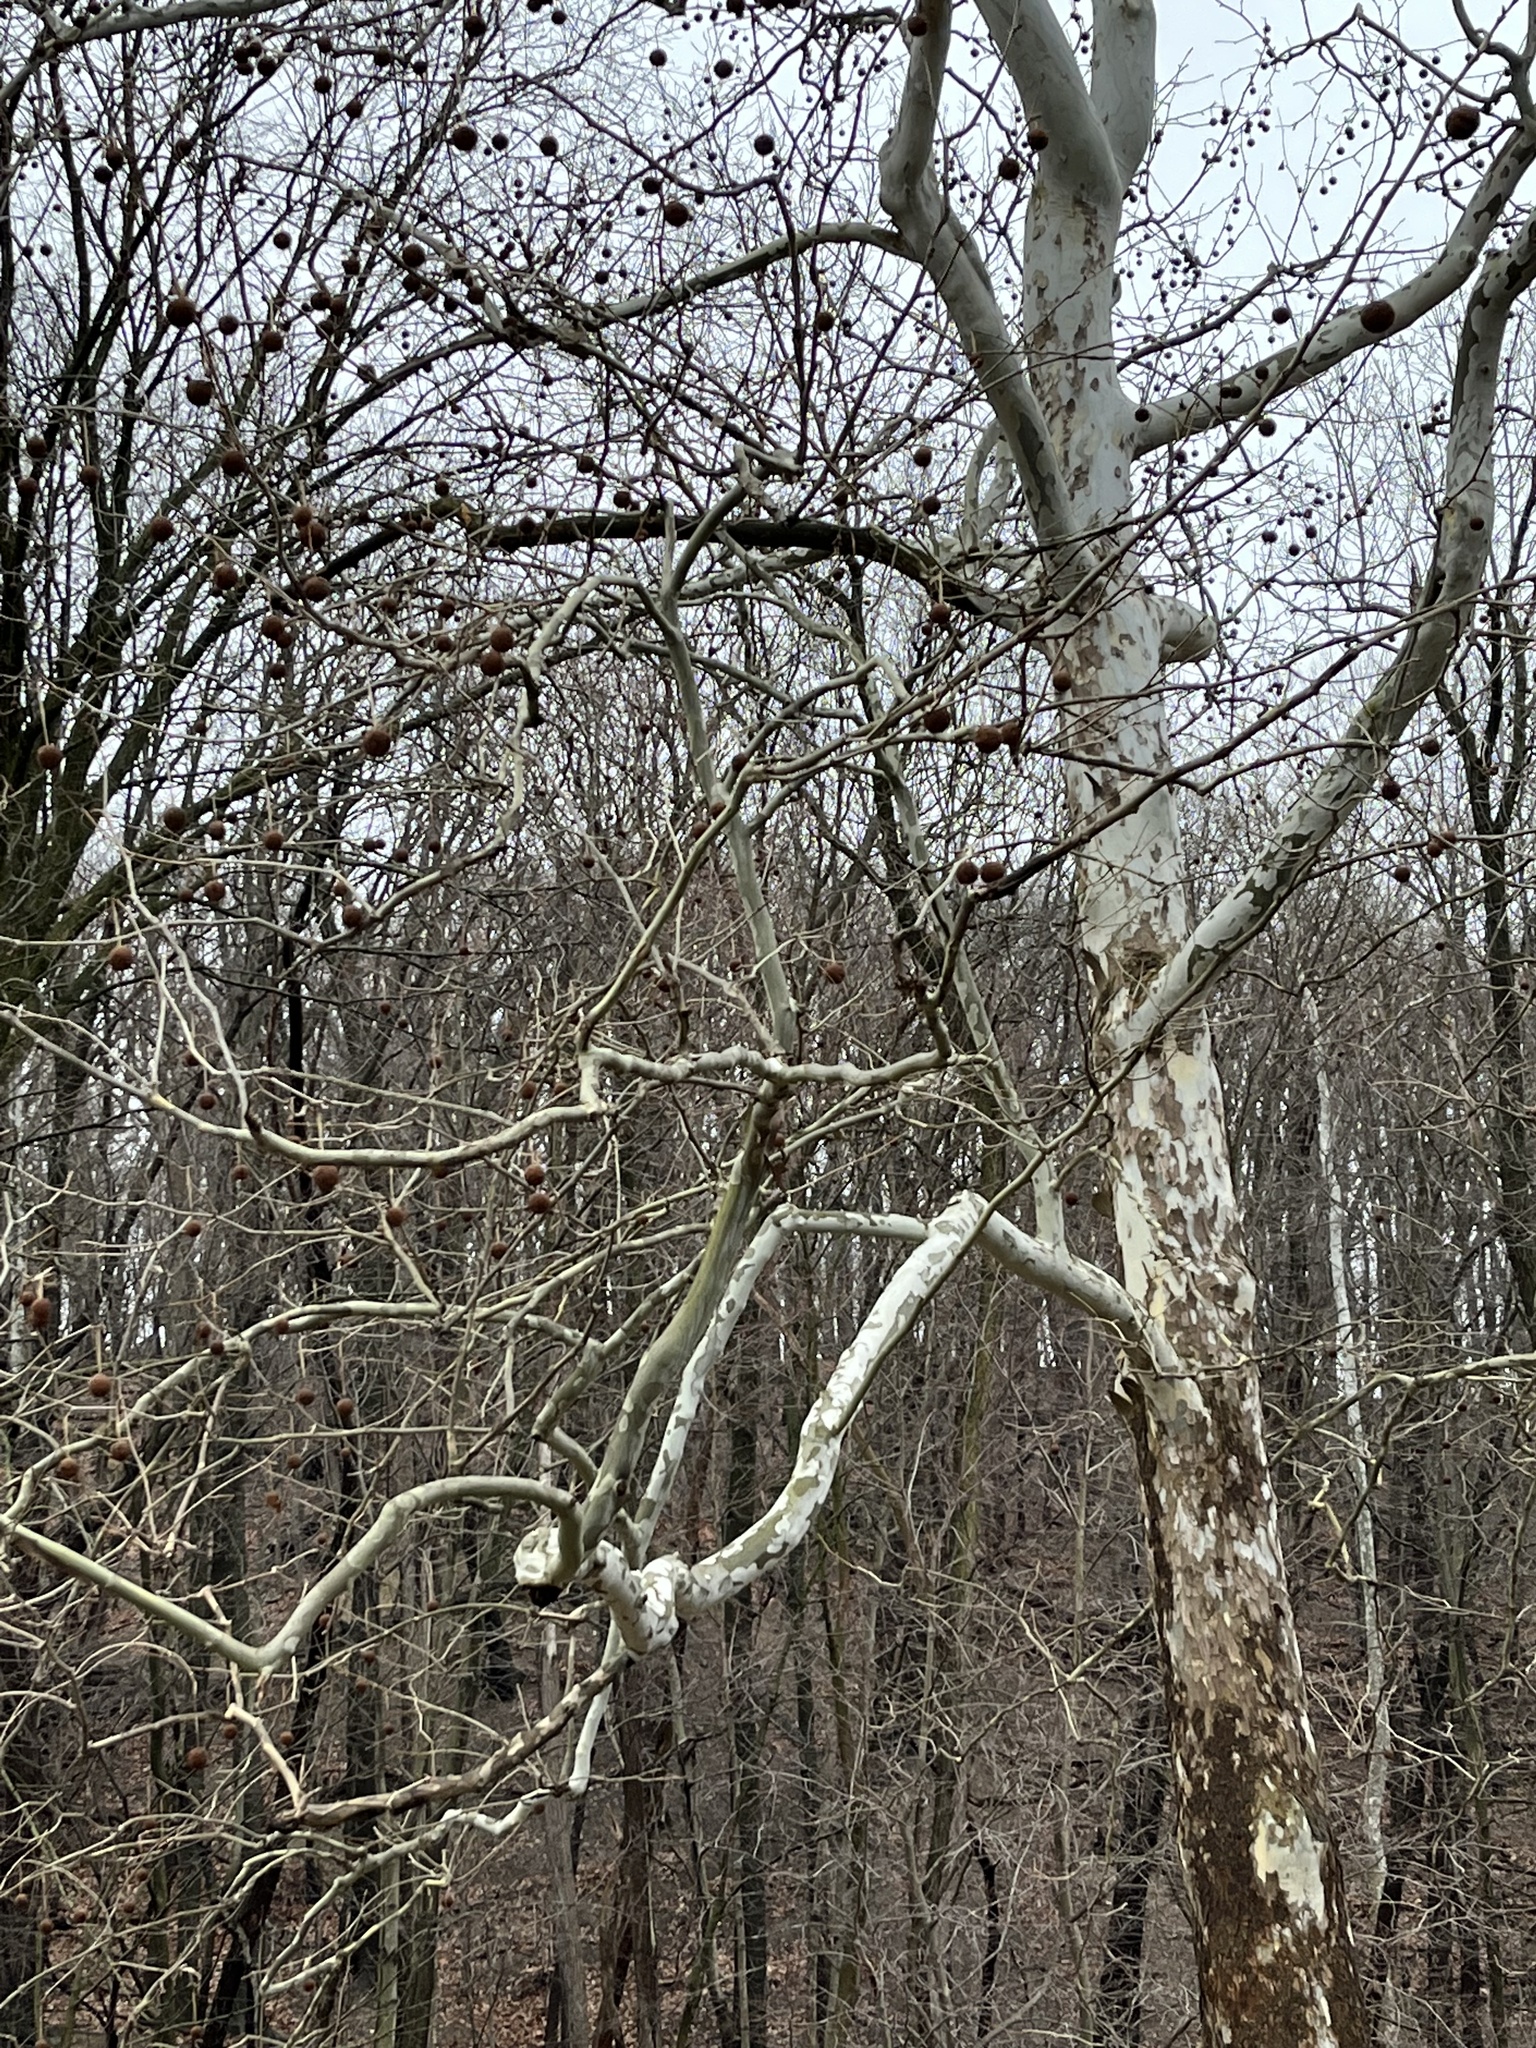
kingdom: Plantae
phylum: Tracheophyta
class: Magnoliopsida
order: Proteales
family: Platanaceae
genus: Platanus
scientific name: Platanus occidentalis
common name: American sycamore
